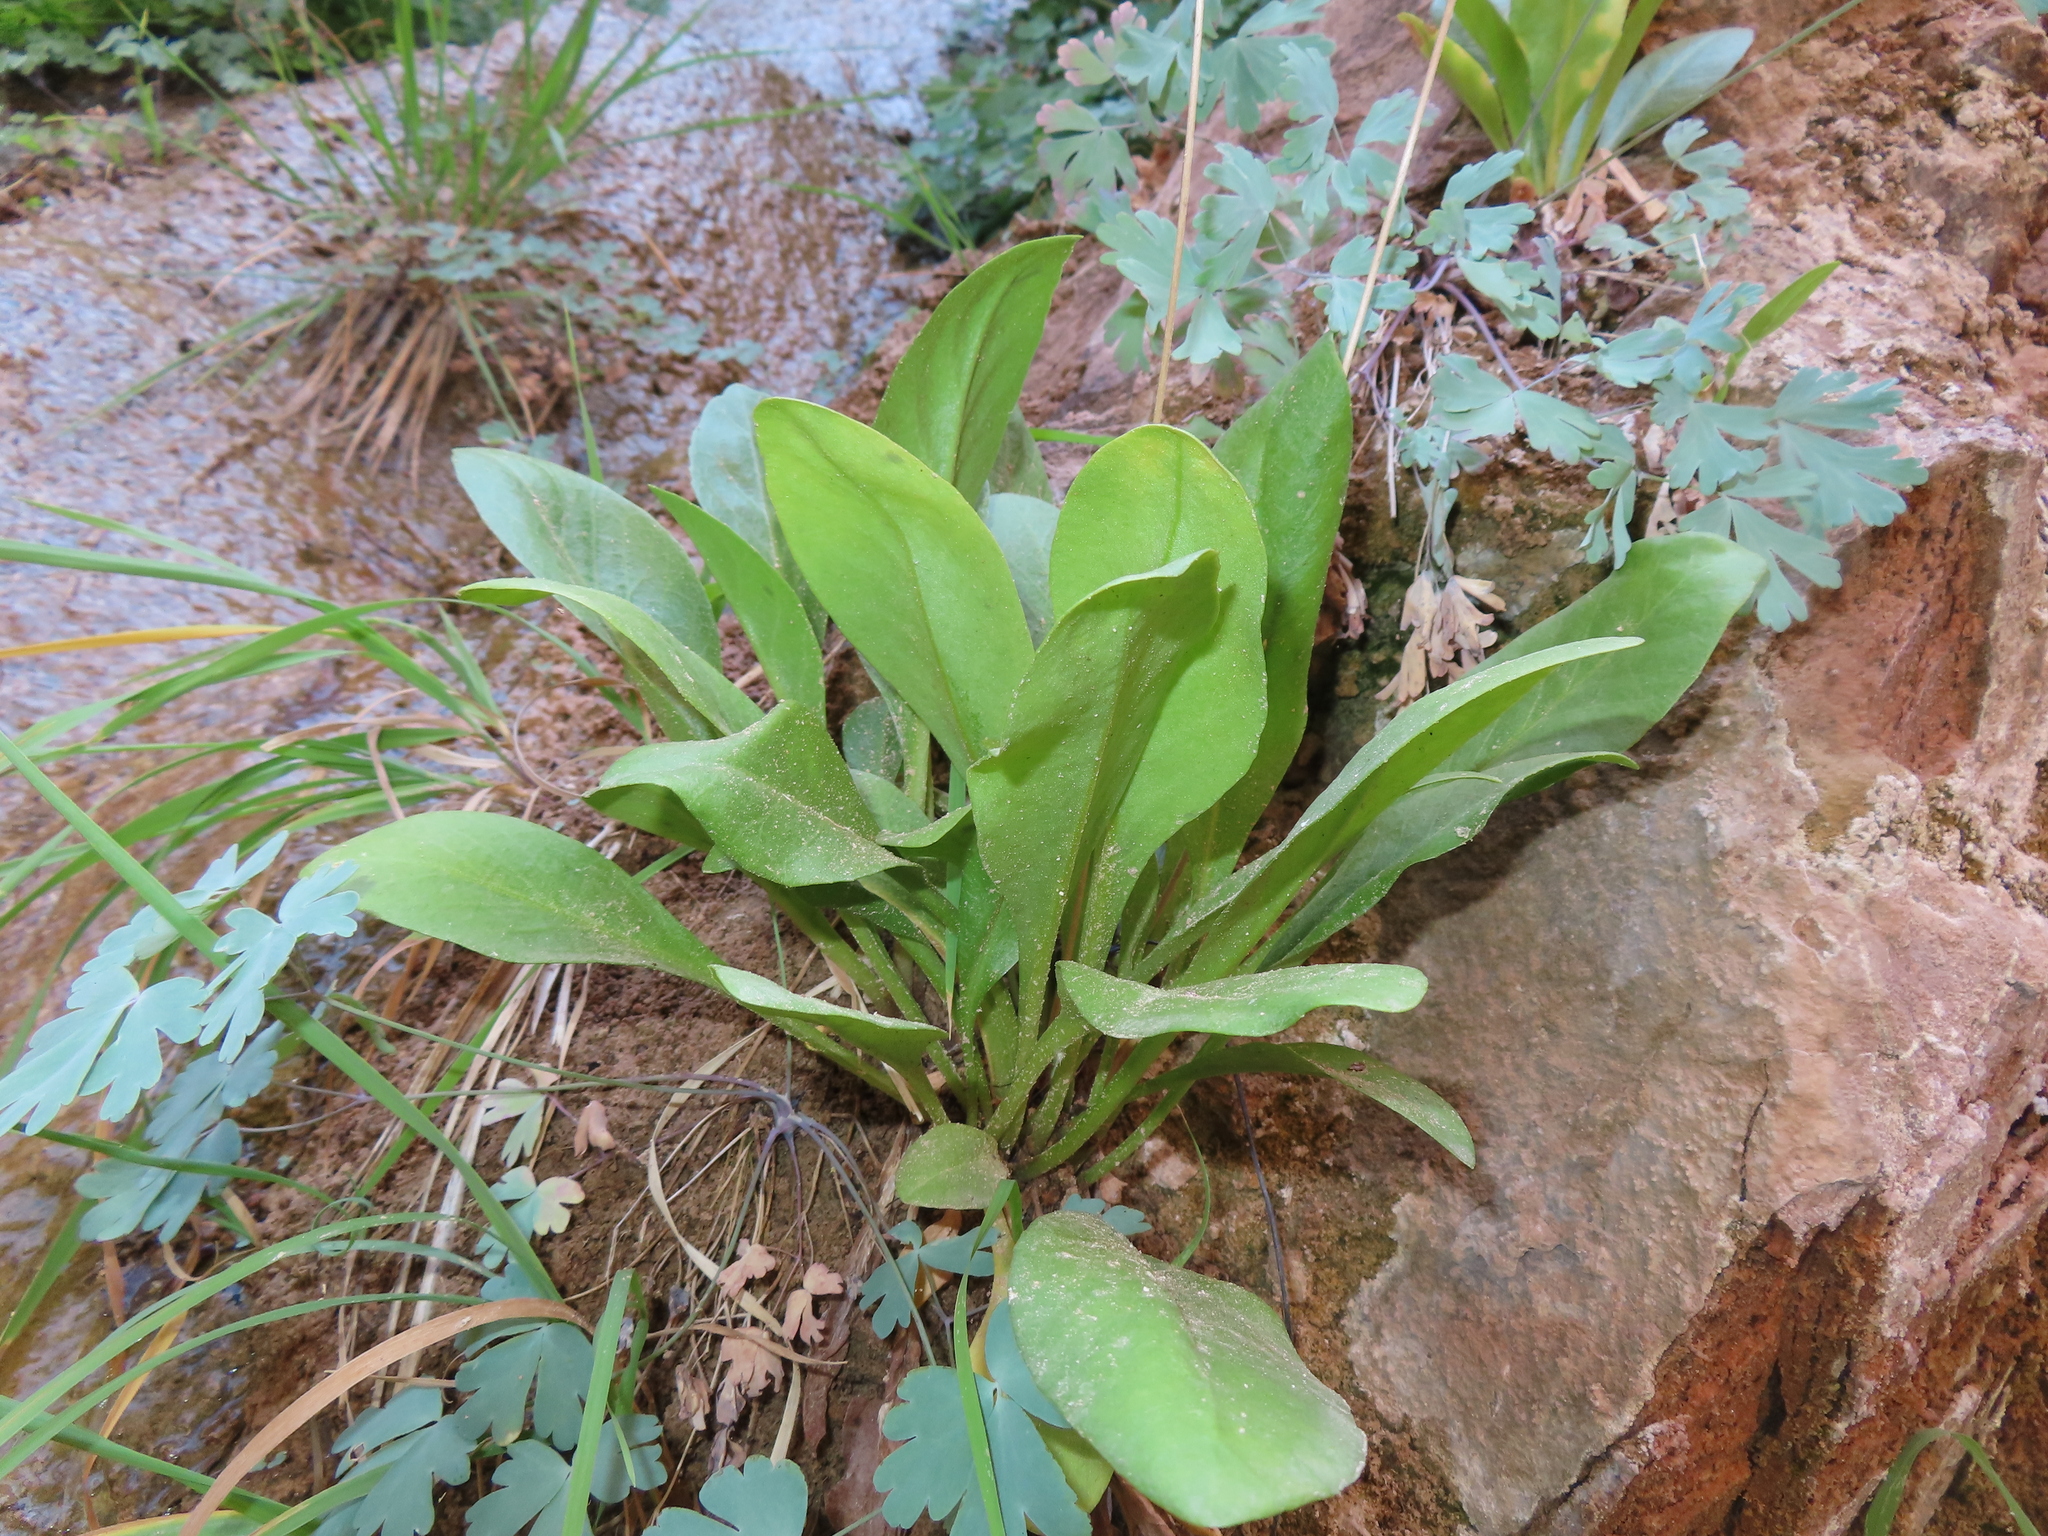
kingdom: Plantae
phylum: Tracheophyta
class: Magnoliopsida
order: Ericales
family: Primulaceae
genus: Dodecatheon
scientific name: Dodecatheon pulchellum
